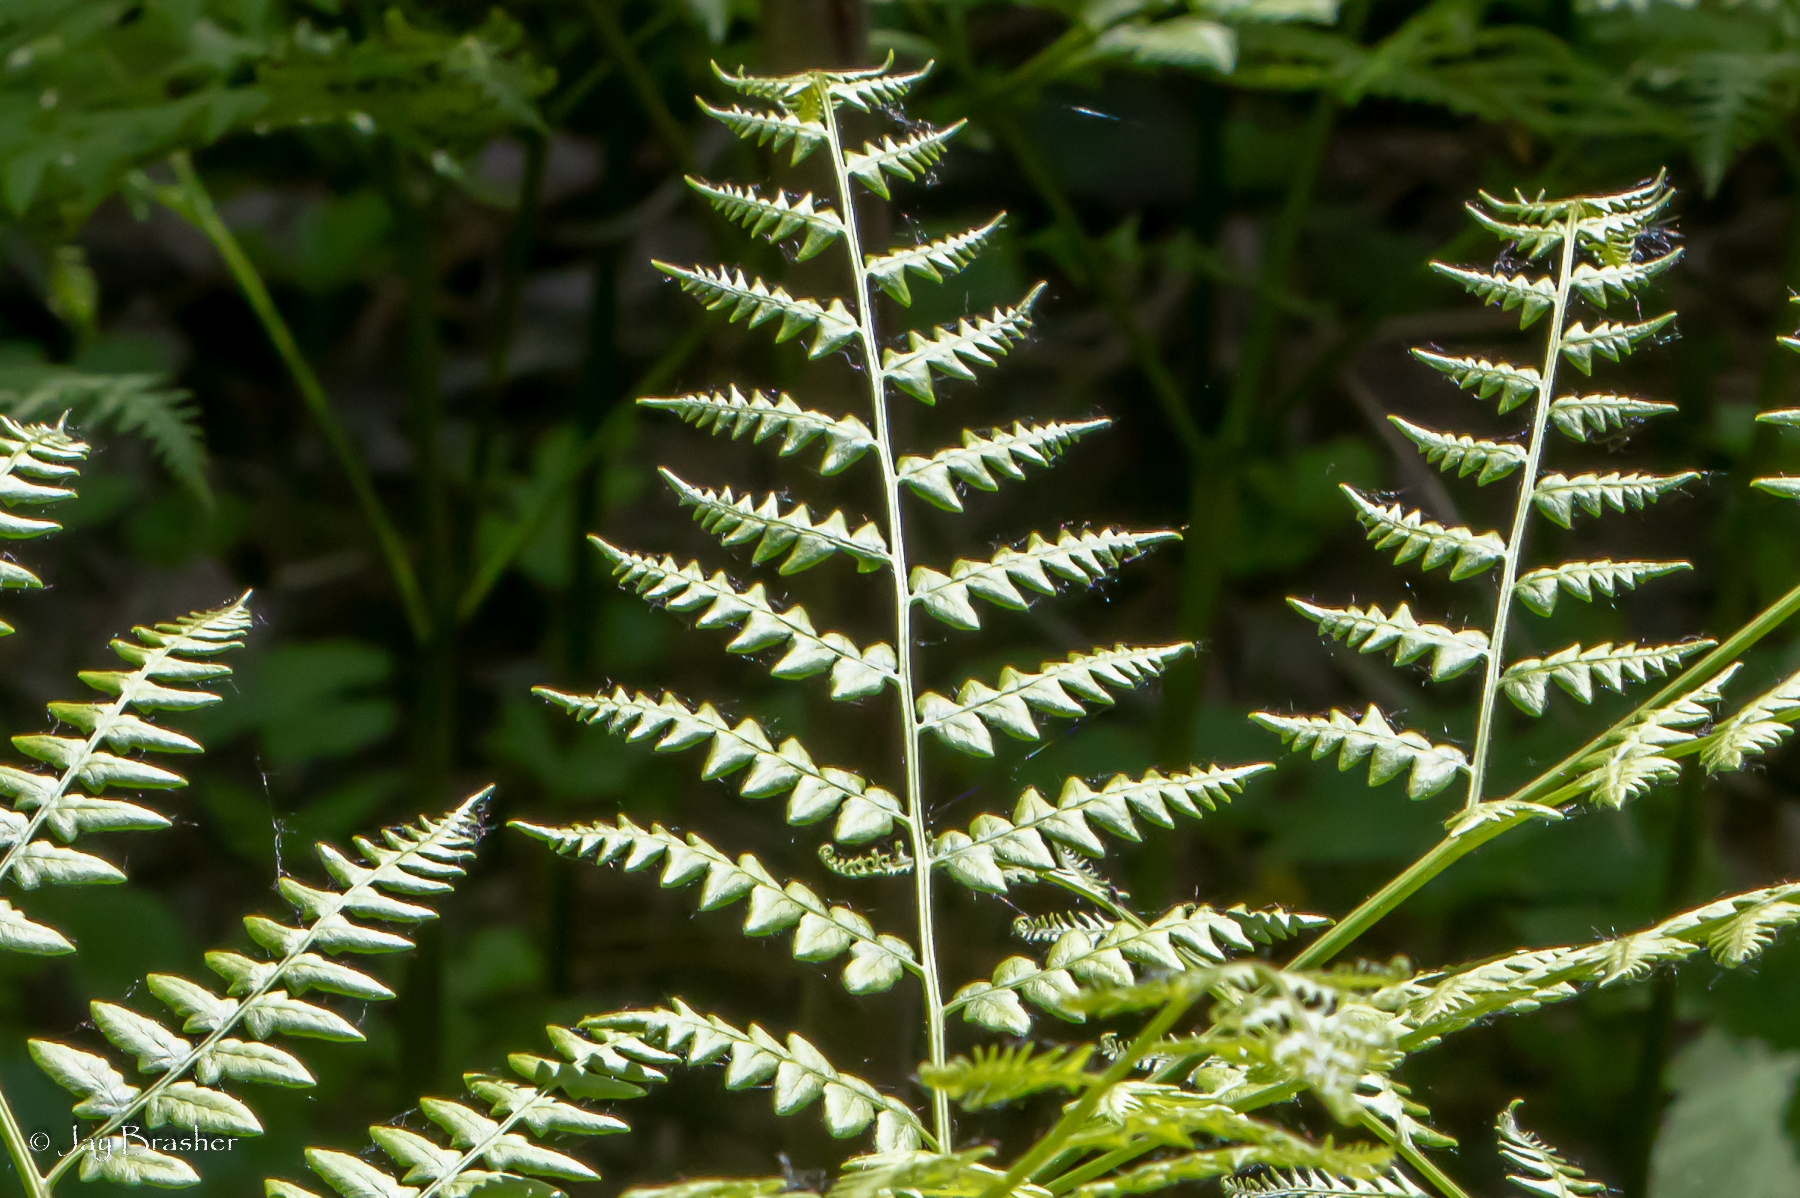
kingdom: Plantae
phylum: Tracheophyta
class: Polypodiopsida
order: Polypodiales
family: Dennstaedtiaceae
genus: Pteridium
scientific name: Pteridium aquilinum
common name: Bracken
